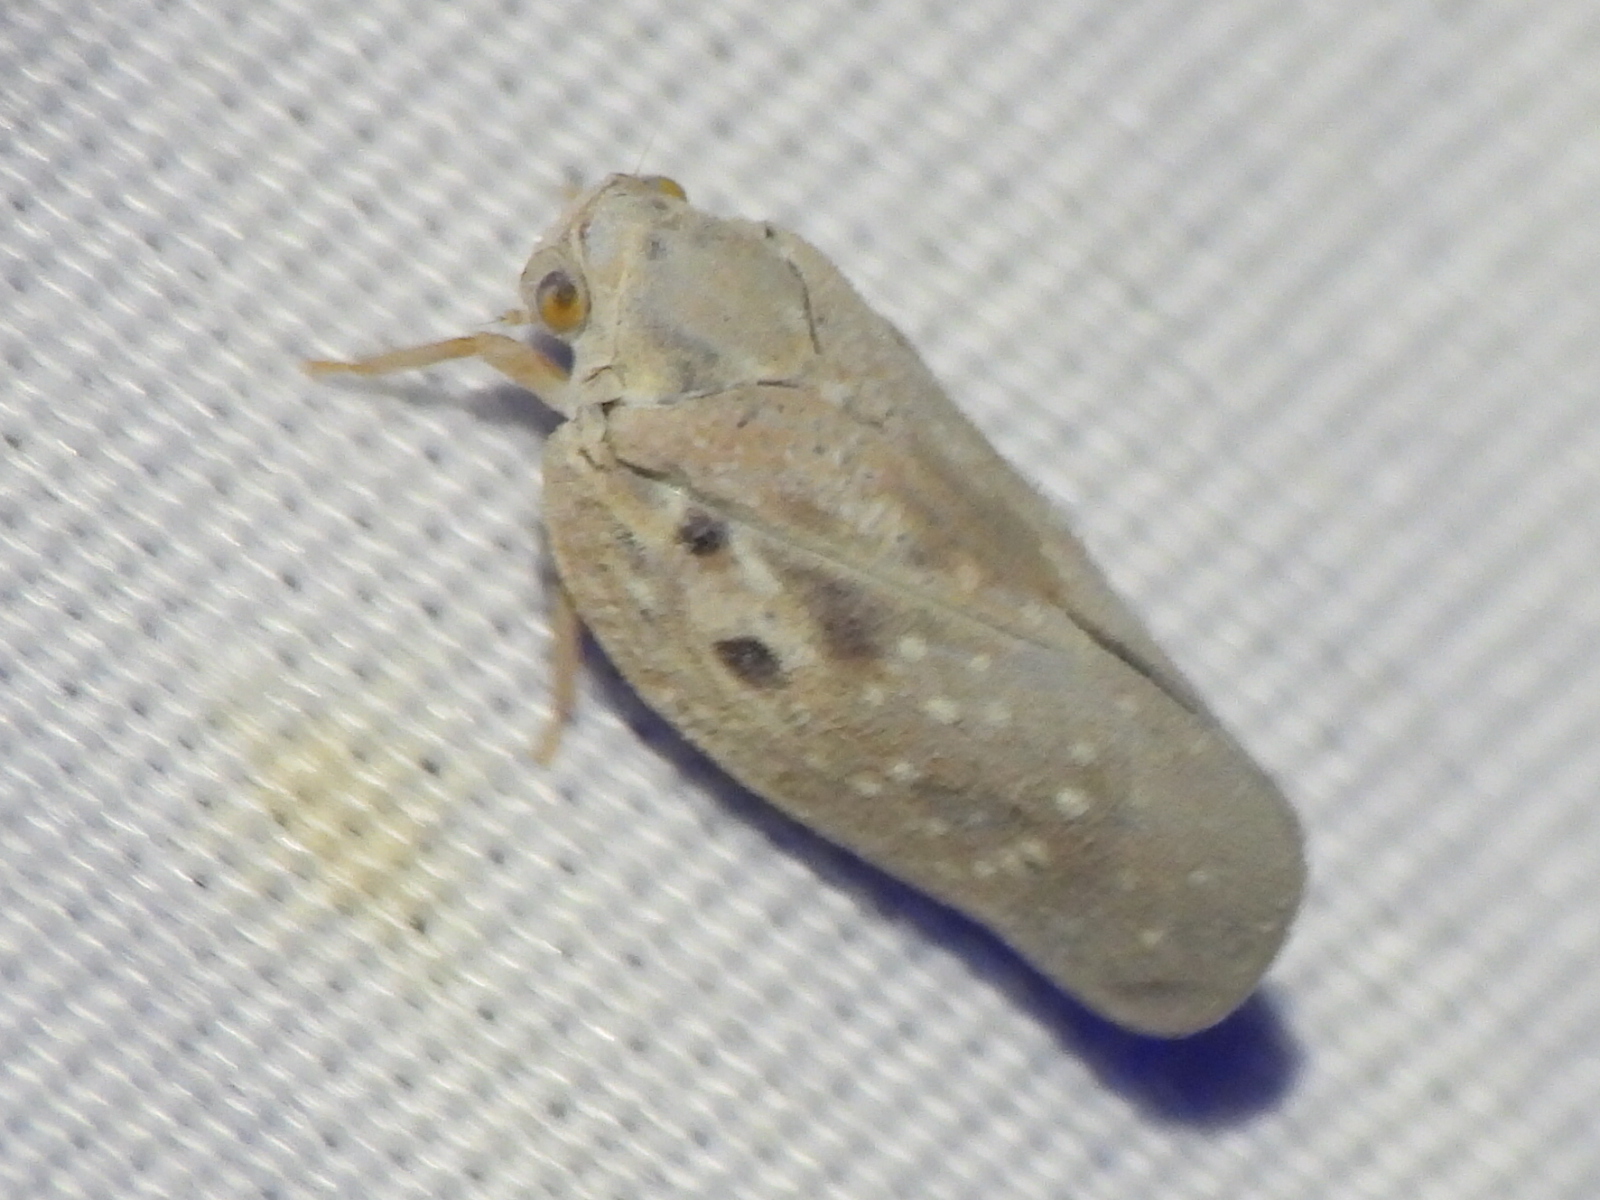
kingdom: Animalia
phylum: Arthropoda
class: Insecta
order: Hemiptera
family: Flatidae
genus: Metcalfa
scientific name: Metcalfa pruinosa
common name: Citrus flatid planthopper
